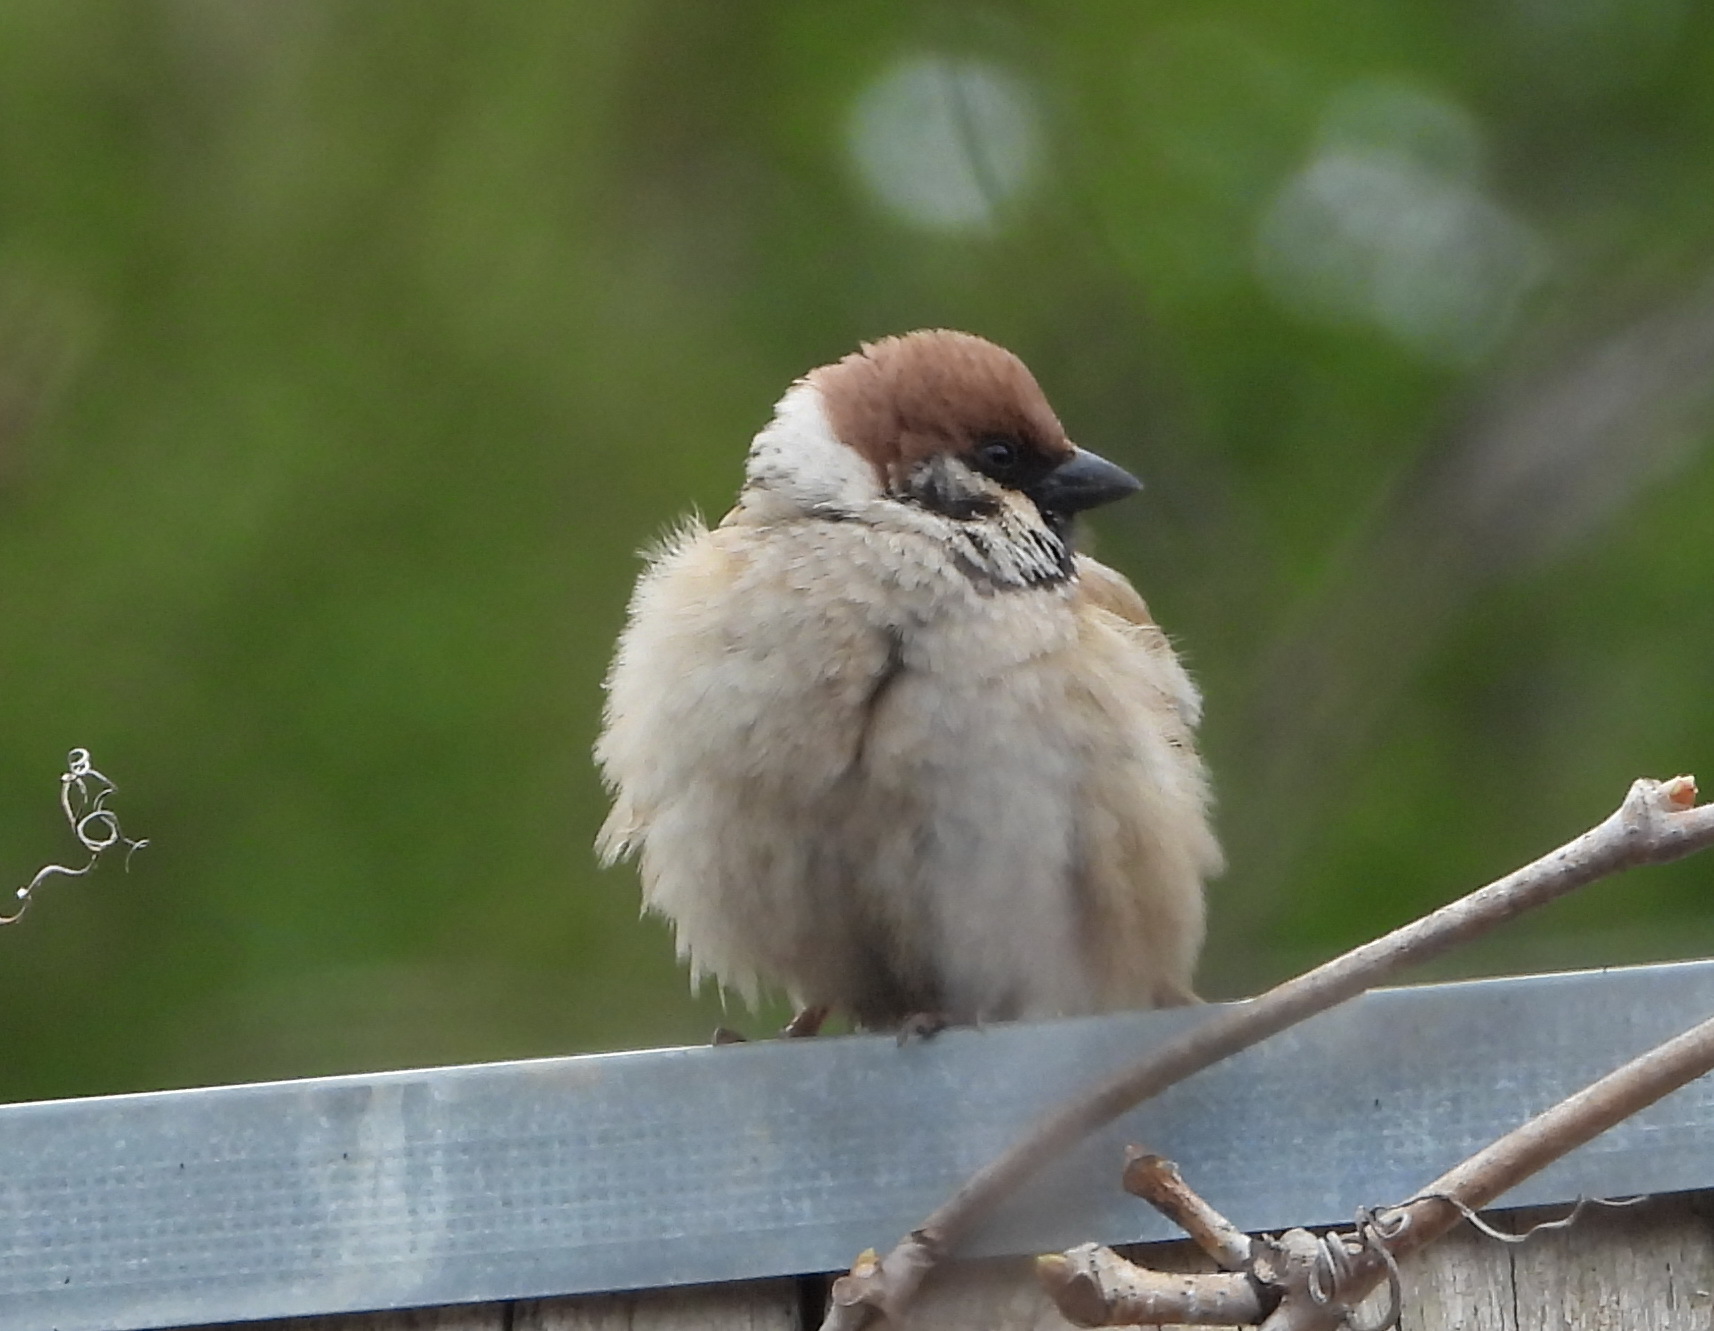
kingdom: Animalia
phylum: Chordata
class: Aves
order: Passeriformes
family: Passeridae
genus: Passer
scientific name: Passer montanus
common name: Eurasian tree sparrow
